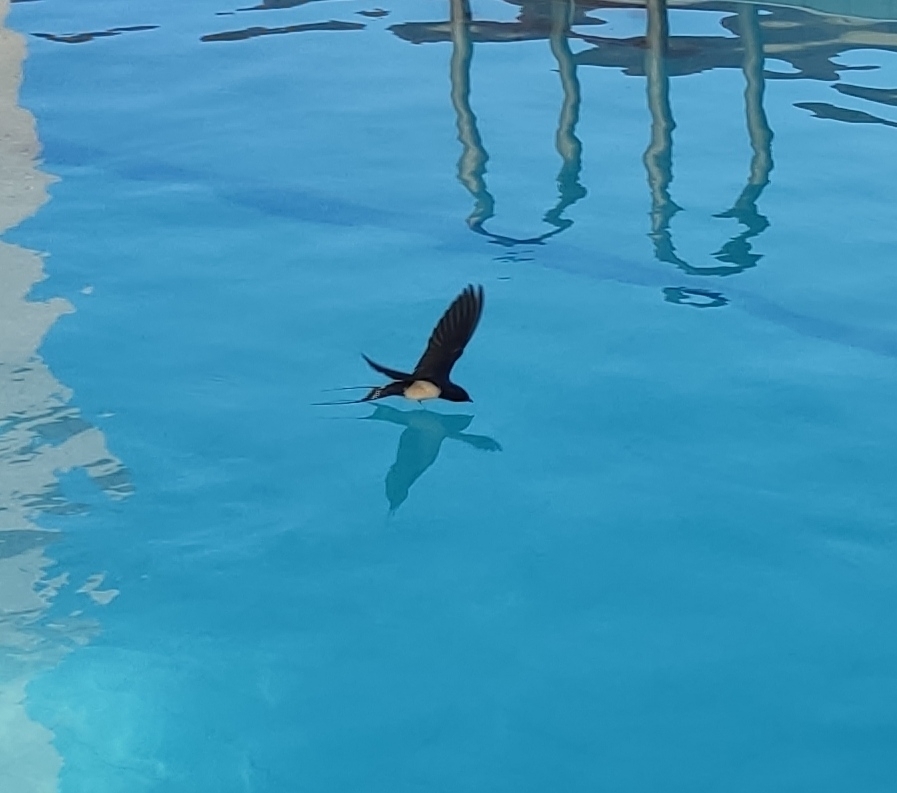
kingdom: Animalia
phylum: Chordata
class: Aves
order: Passeriformes
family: Hirundinidae
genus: Hirundo
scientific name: Hirundo rustica
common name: Barn swallow
